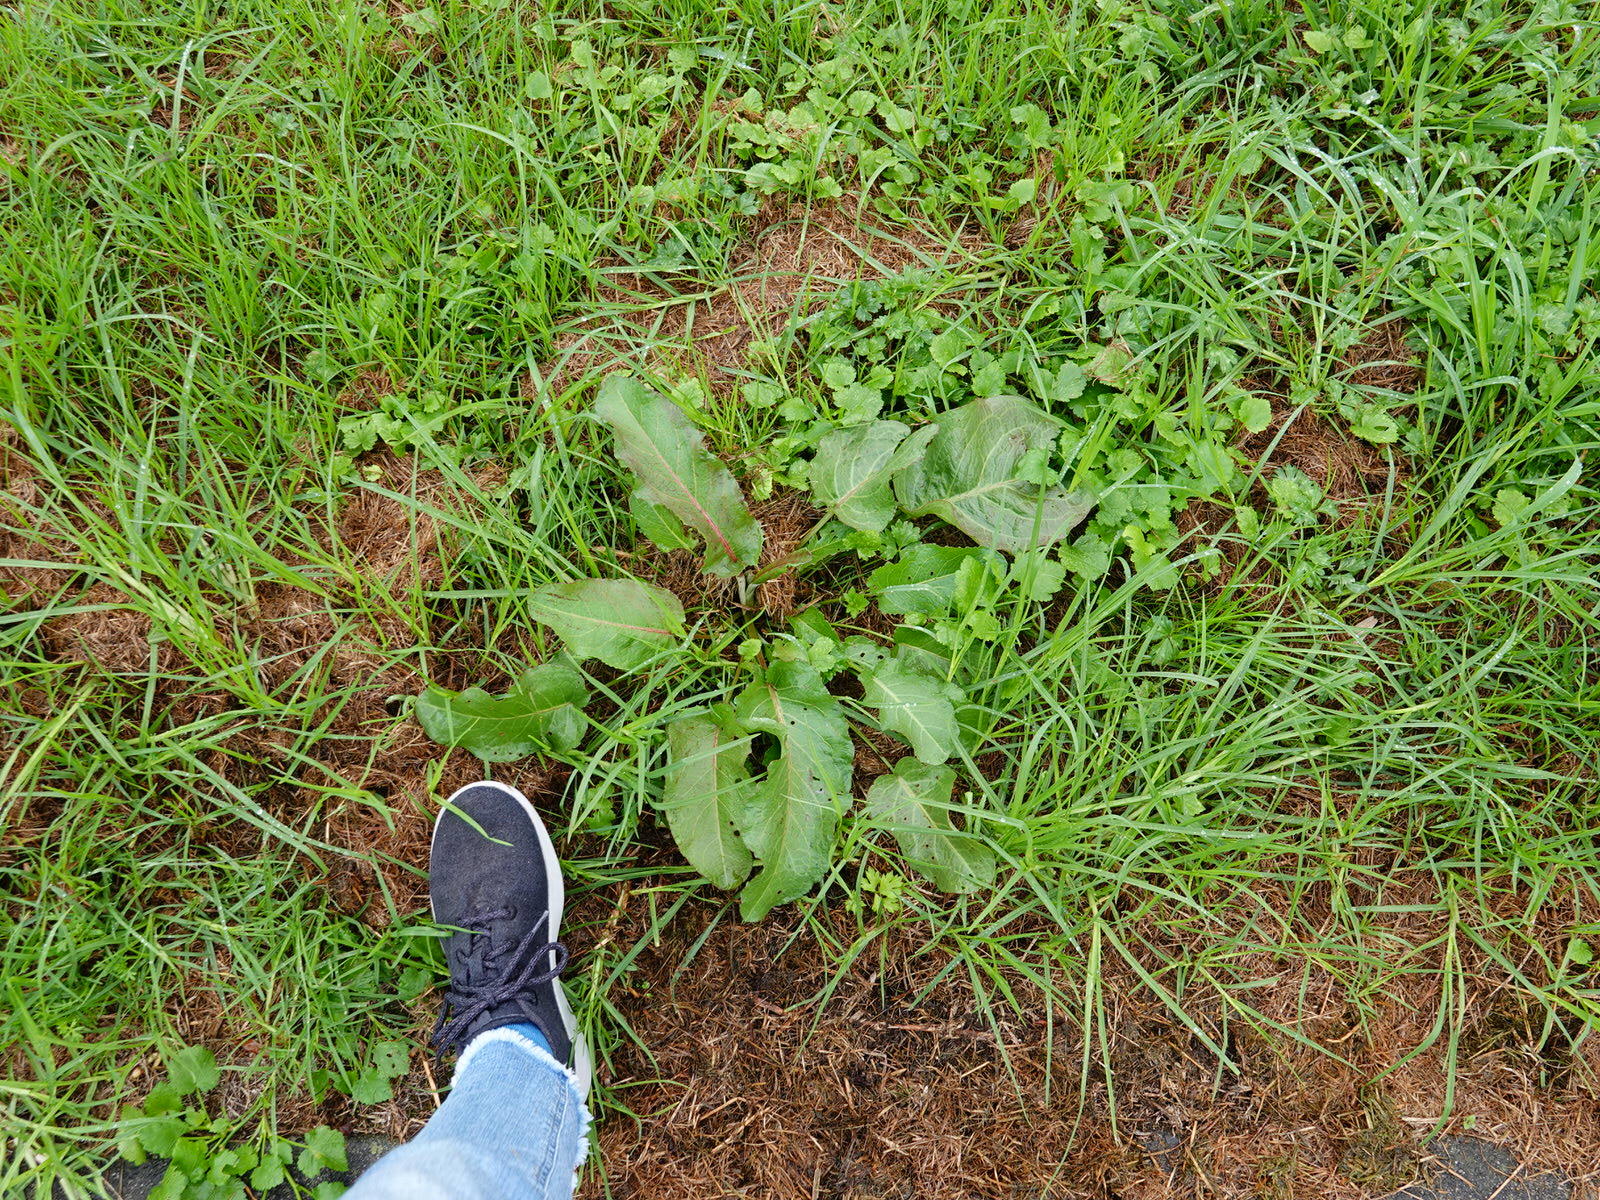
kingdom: Plantae
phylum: Tracheophyta
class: Magnoliopsida
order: Caryophyllales
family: Polygonaceae
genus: Rumex
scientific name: Rumex obtusifolius
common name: Bitter dock
